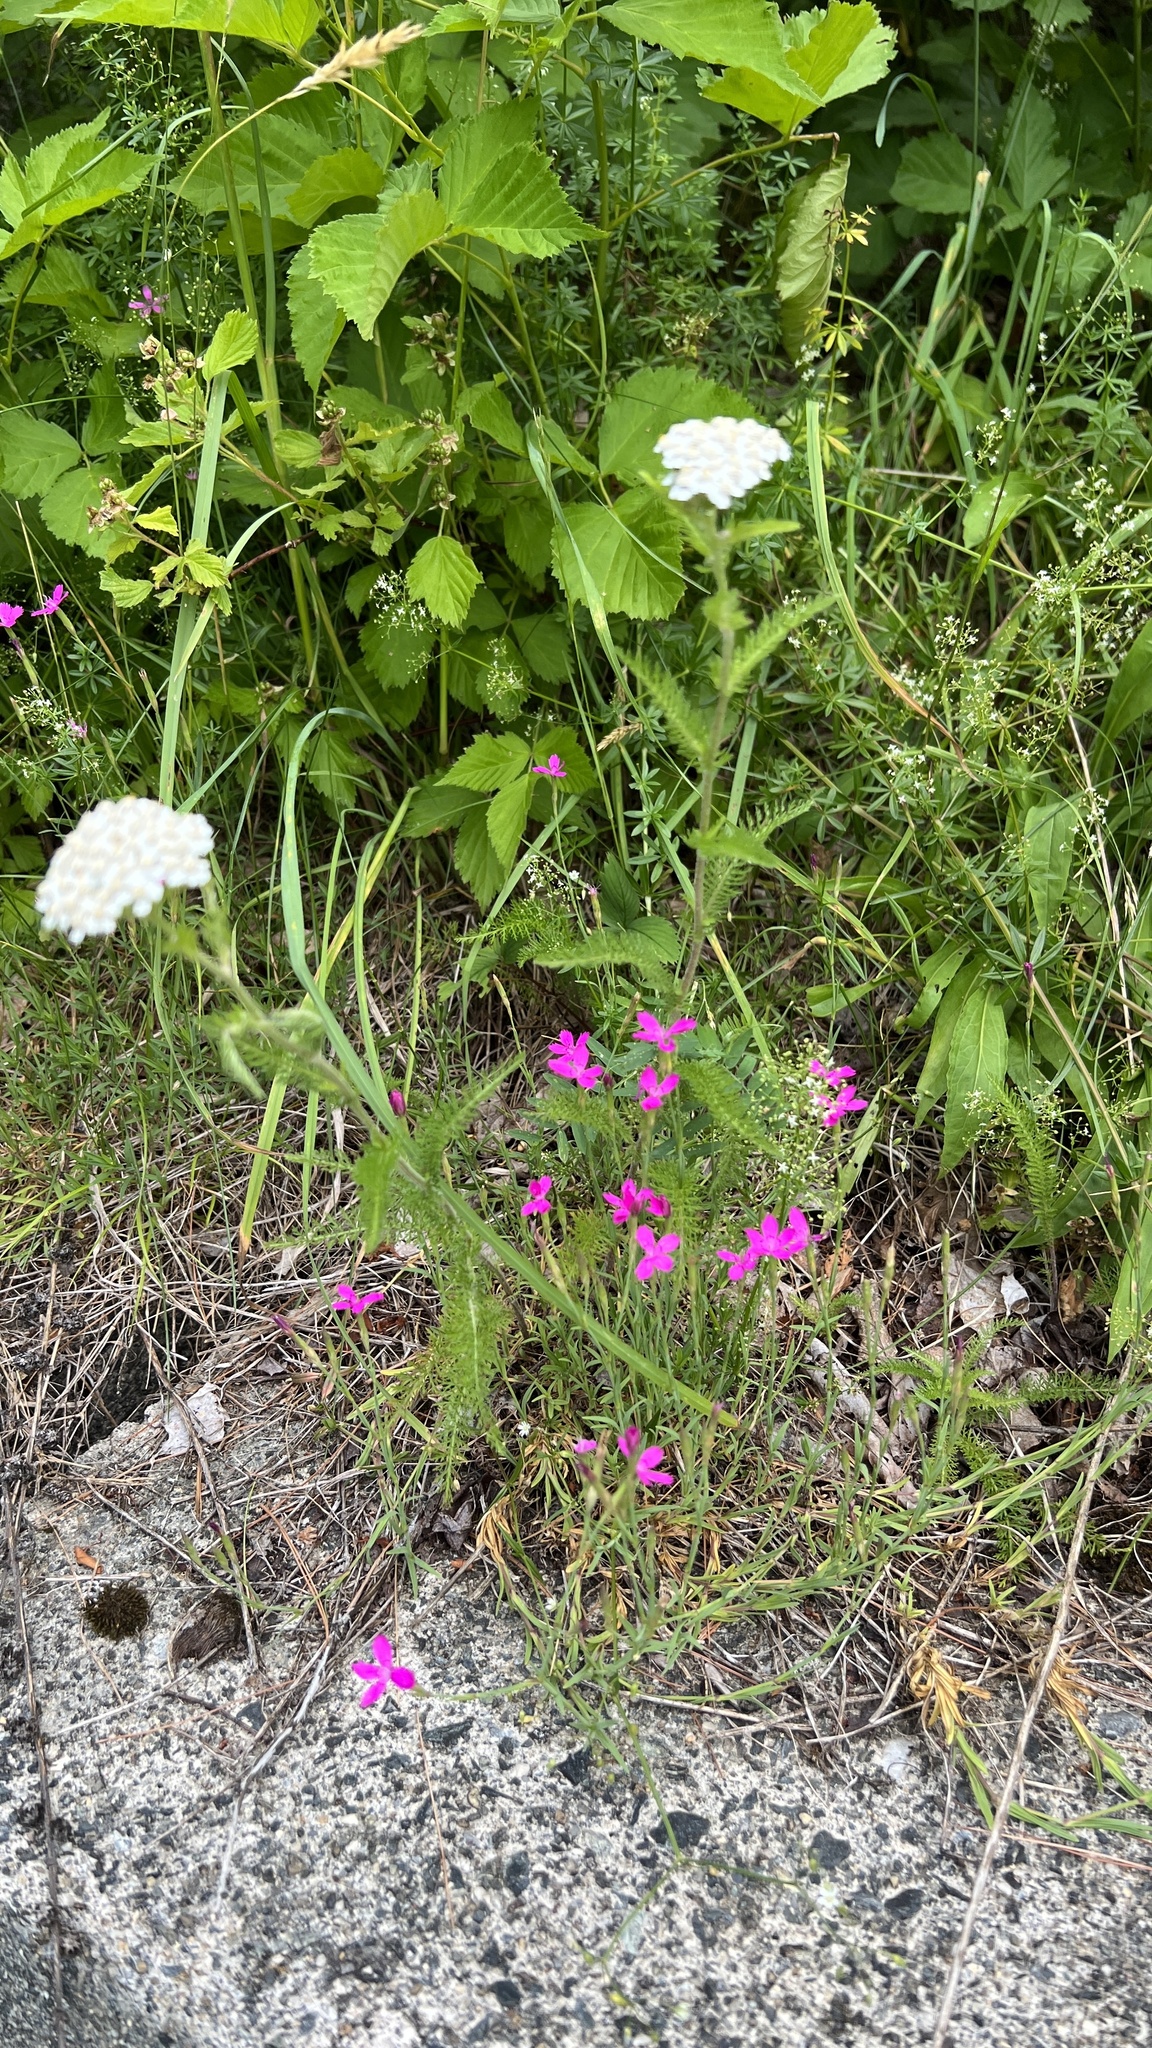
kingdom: Plantae
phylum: Tracheophyta
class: Magnoliopsida
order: Caryophyllales
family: Caryophyllaceae
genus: Dianthus
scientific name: Dianthus deltoides
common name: Maiden pink
